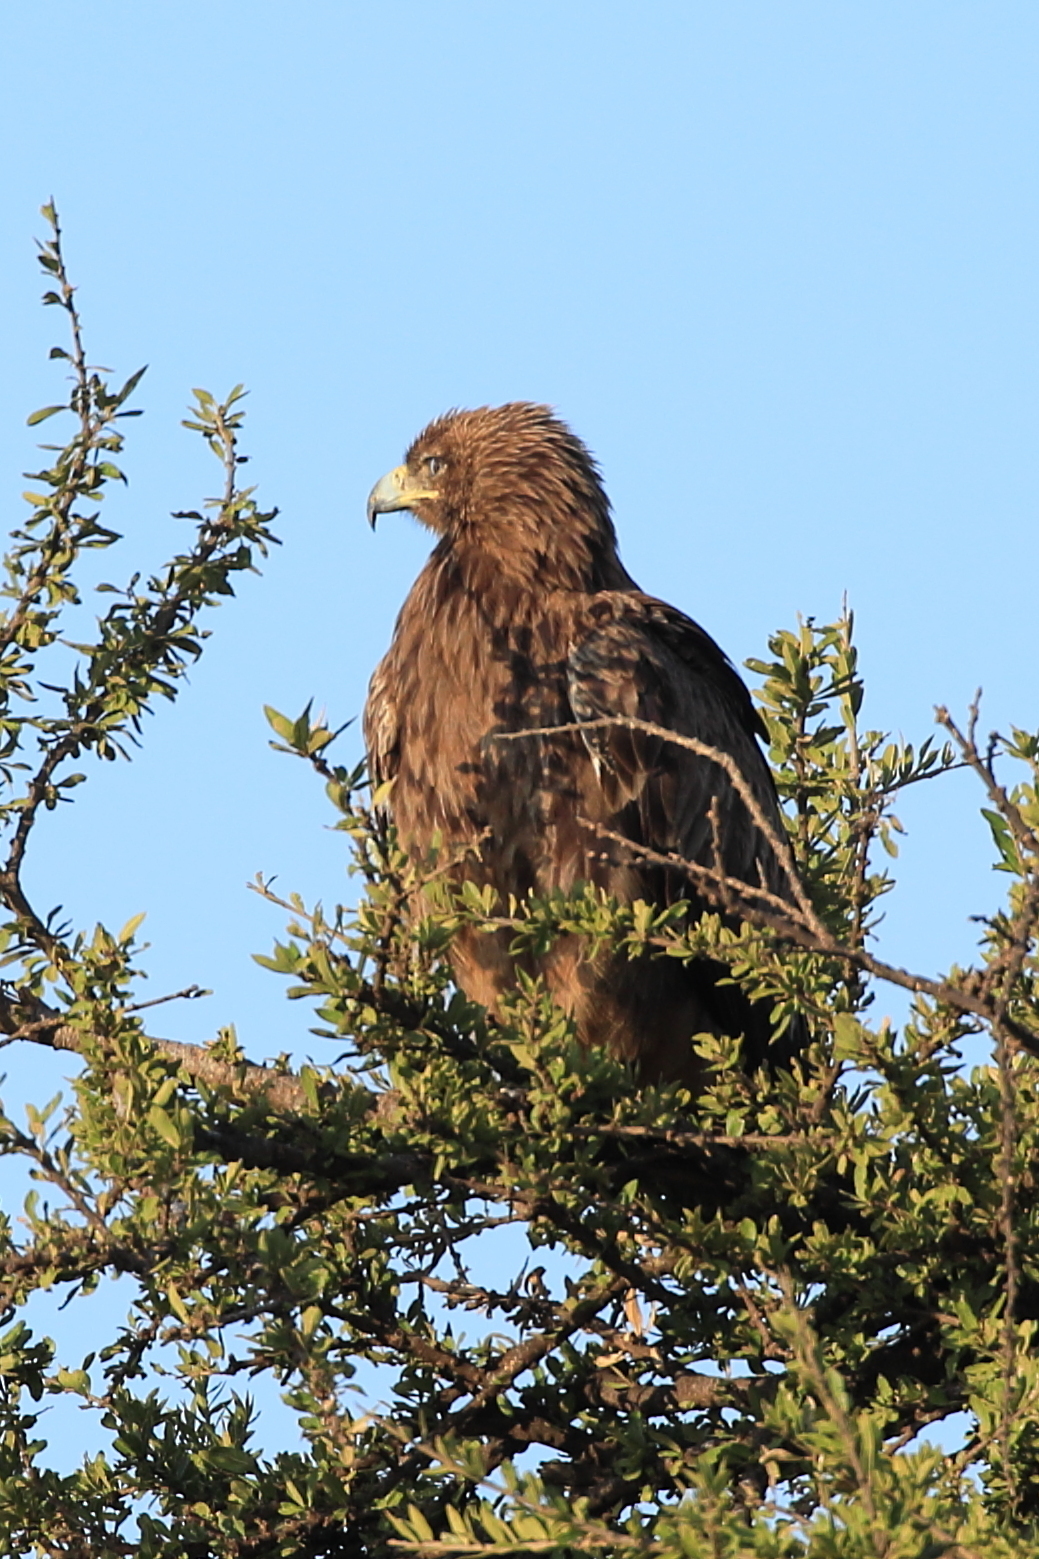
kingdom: Animalia
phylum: Chordata
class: Aves
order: Accipitriformes
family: Accipitridae
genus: Aquila
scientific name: Aquila rapax
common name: Tawny eagle
